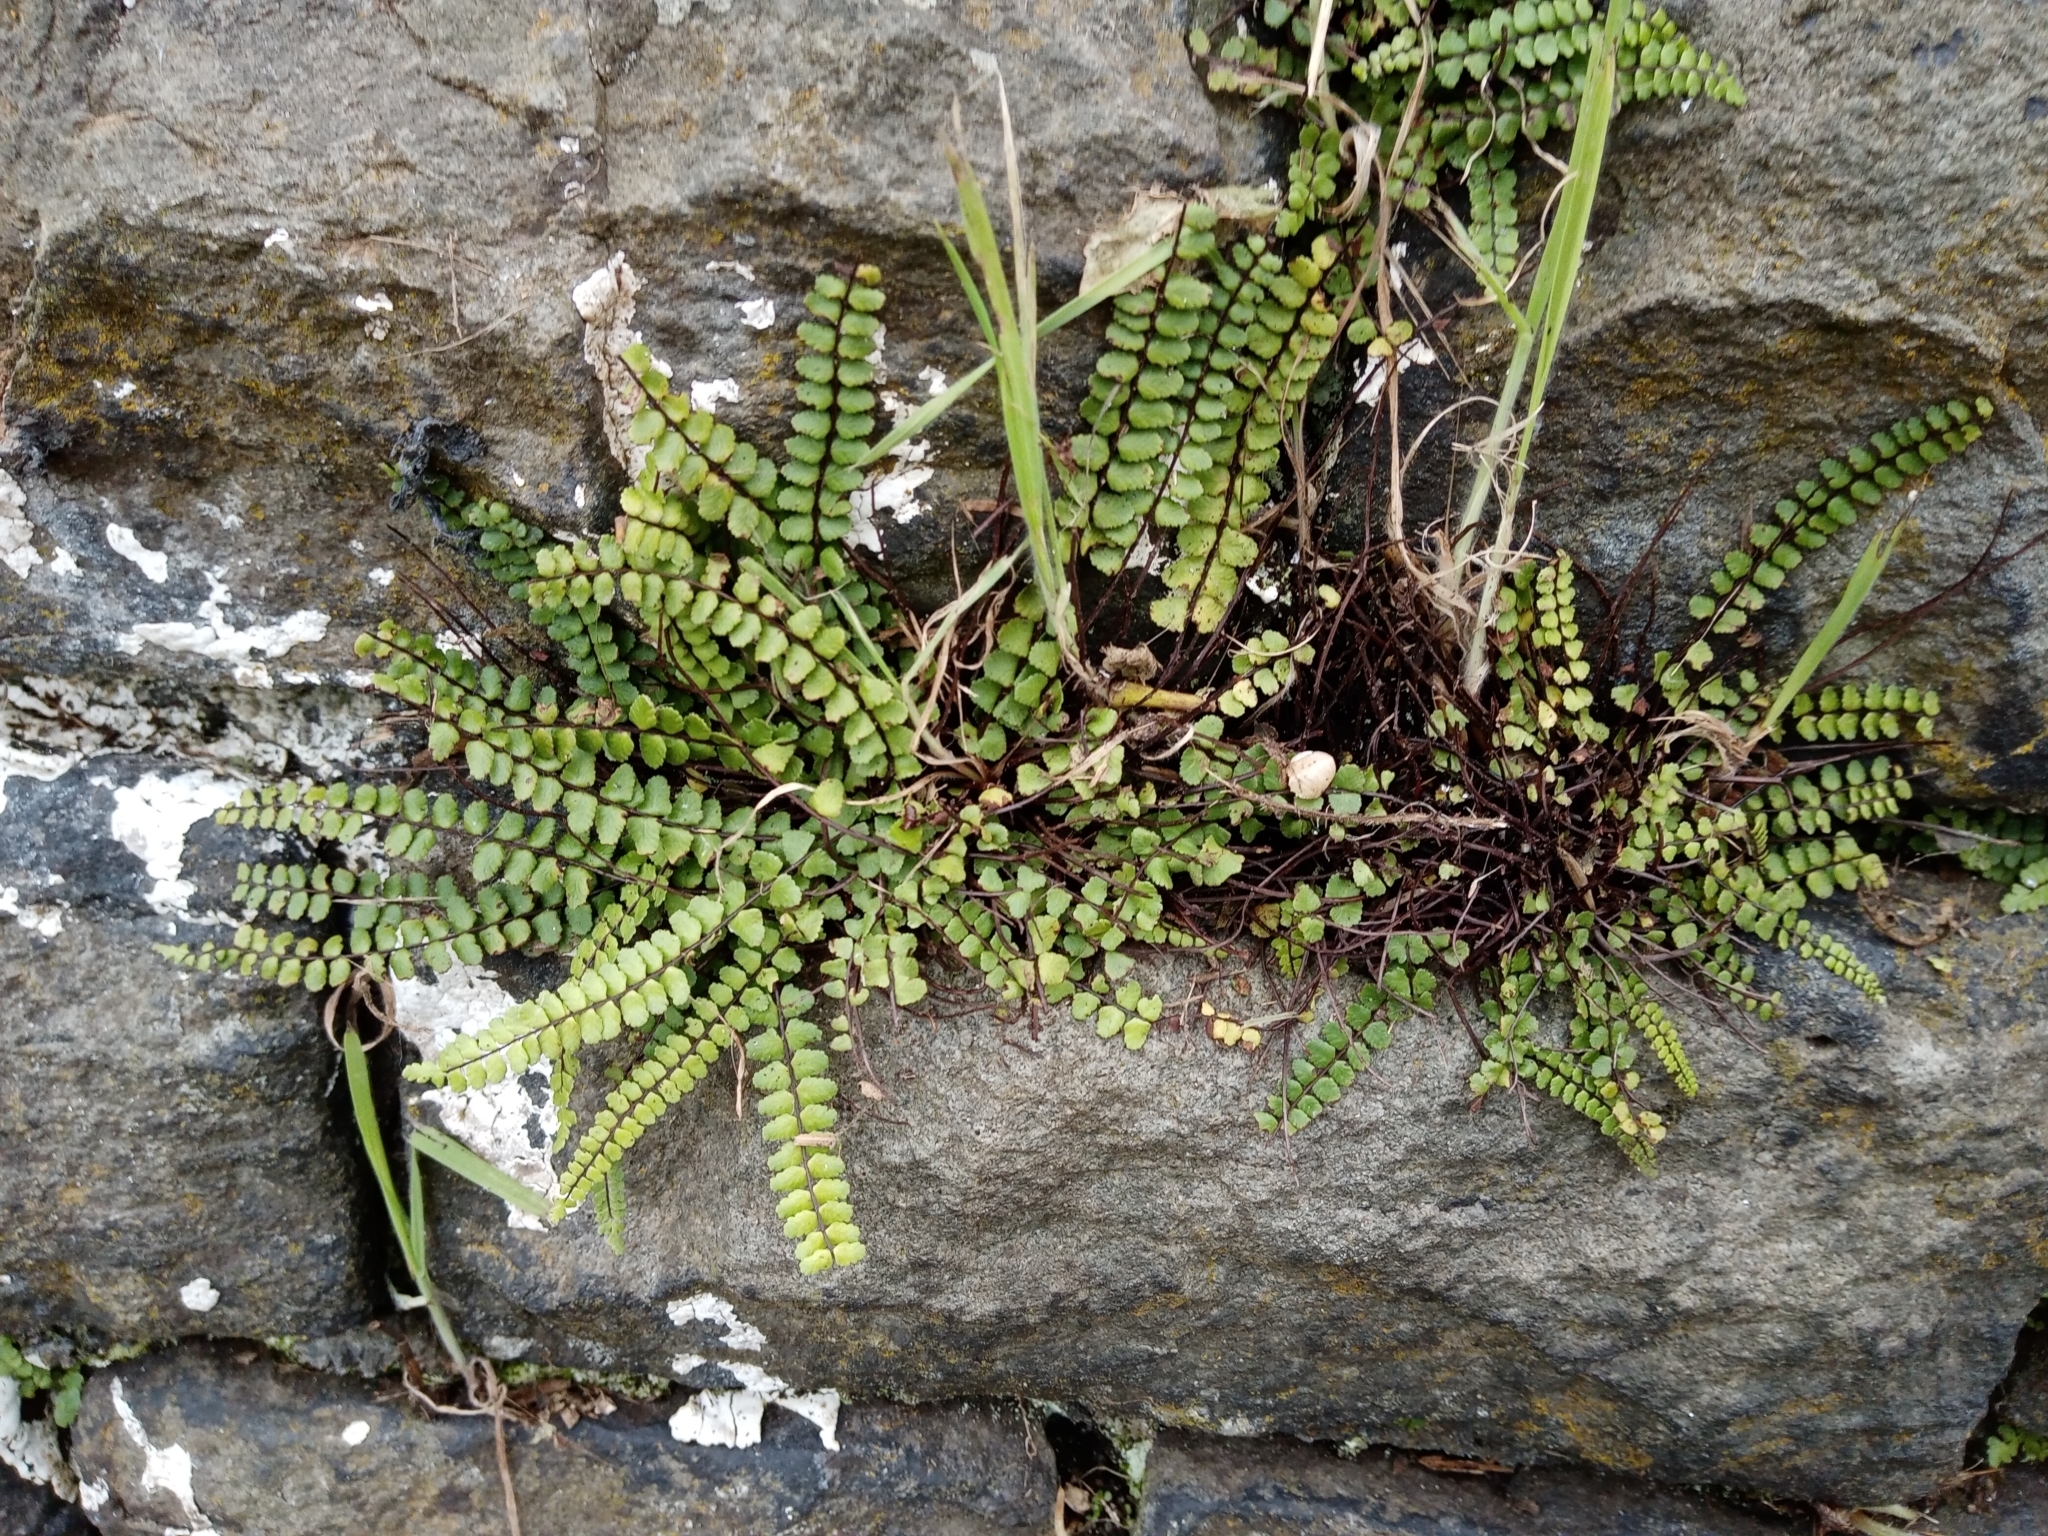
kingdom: Plantae
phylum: Tracheophyta
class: Polypodiopsida
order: Polypodiales
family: Aspleniaceae
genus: Asplenium
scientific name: Asplenium trichomanes
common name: Maidenhair spleenwort
